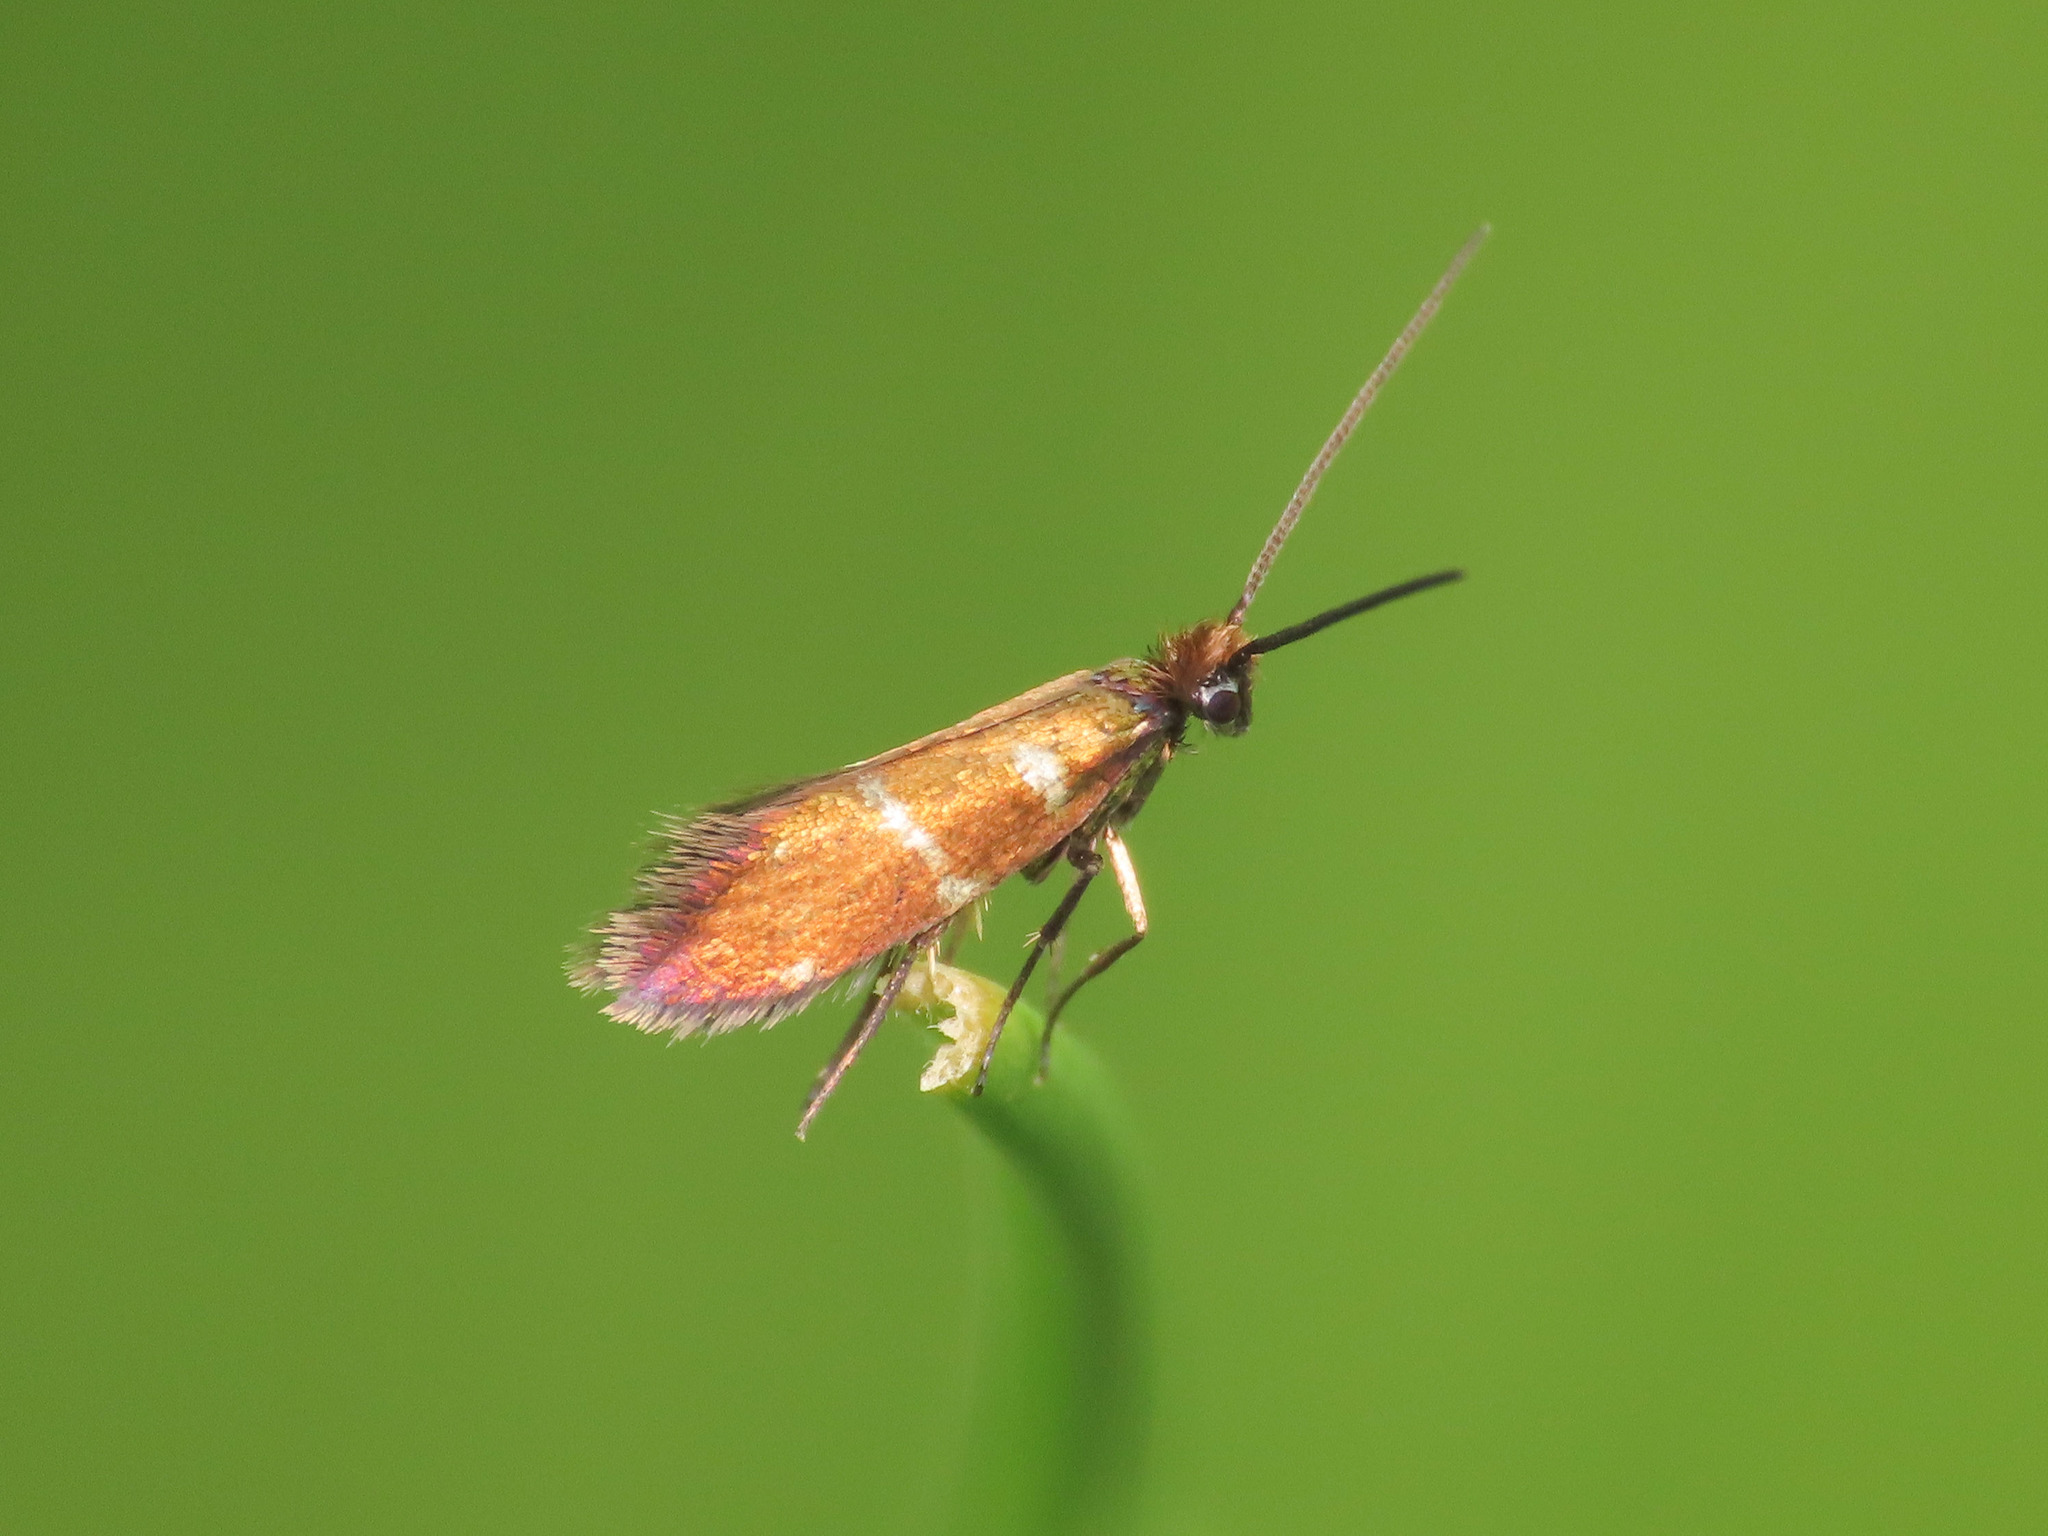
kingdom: Animalia
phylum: Arthropoda
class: Insecta
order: Lepidoptera
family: Micropterigidae
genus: Micropterix
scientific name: Micropterix aruncella
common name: White-barred gold
